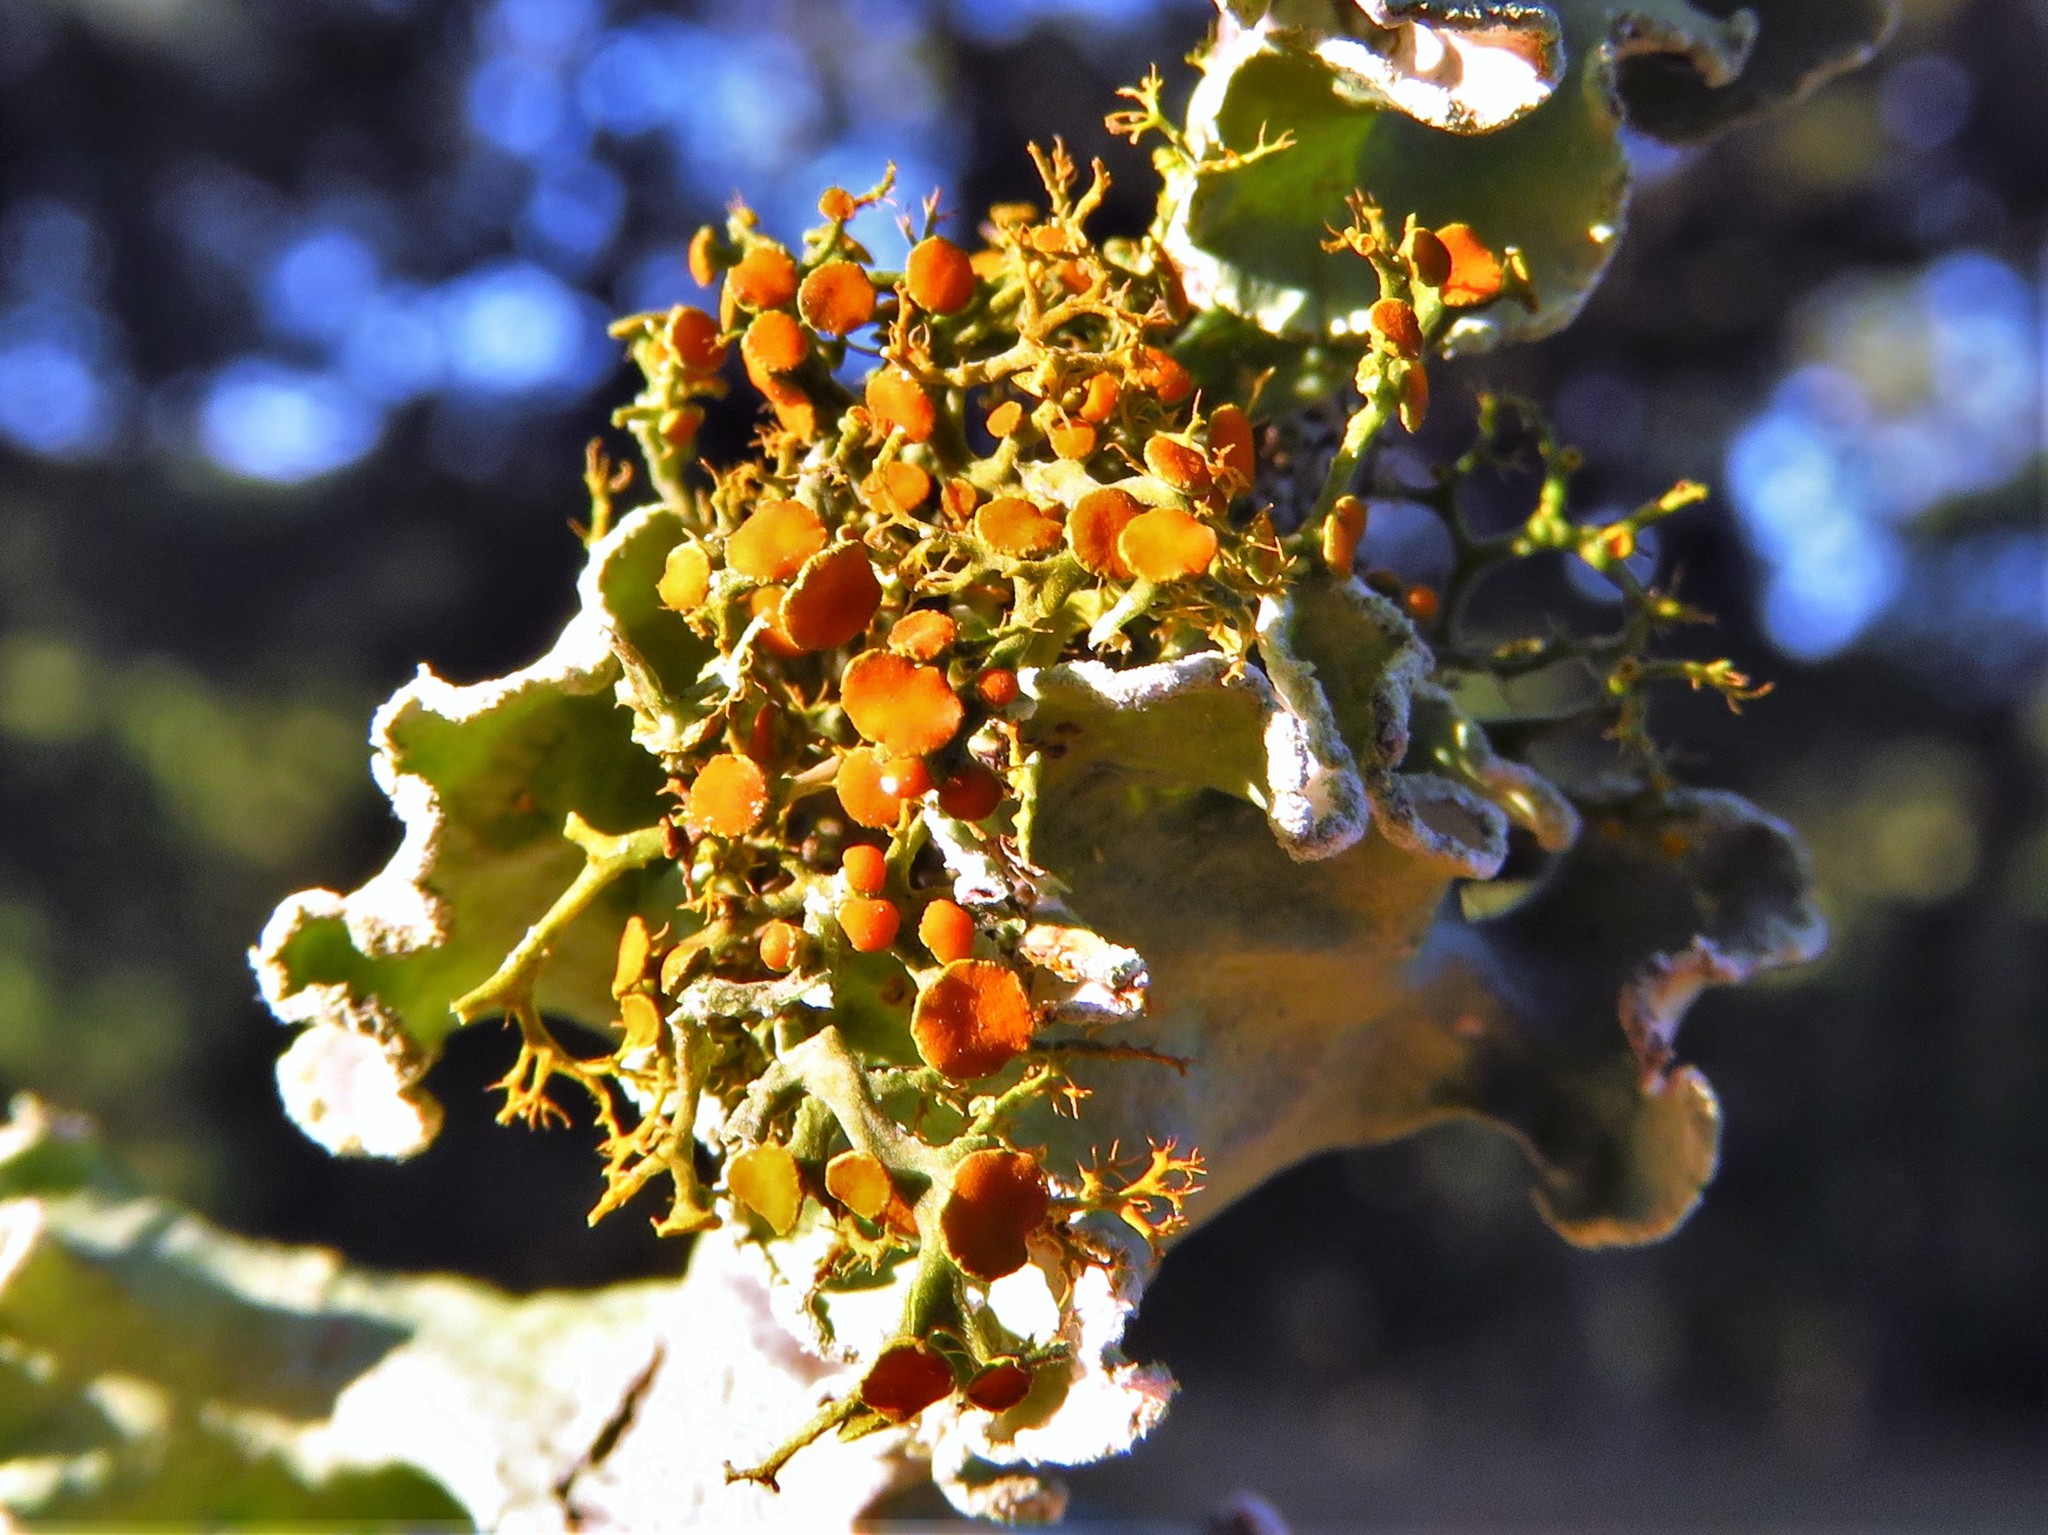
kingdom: Fungi
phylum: Ascomycota
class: Lecanoromycetes
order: Teloschistales
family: Teloschistaceae
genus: Teloschistes
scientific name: Teloschistes exilis
